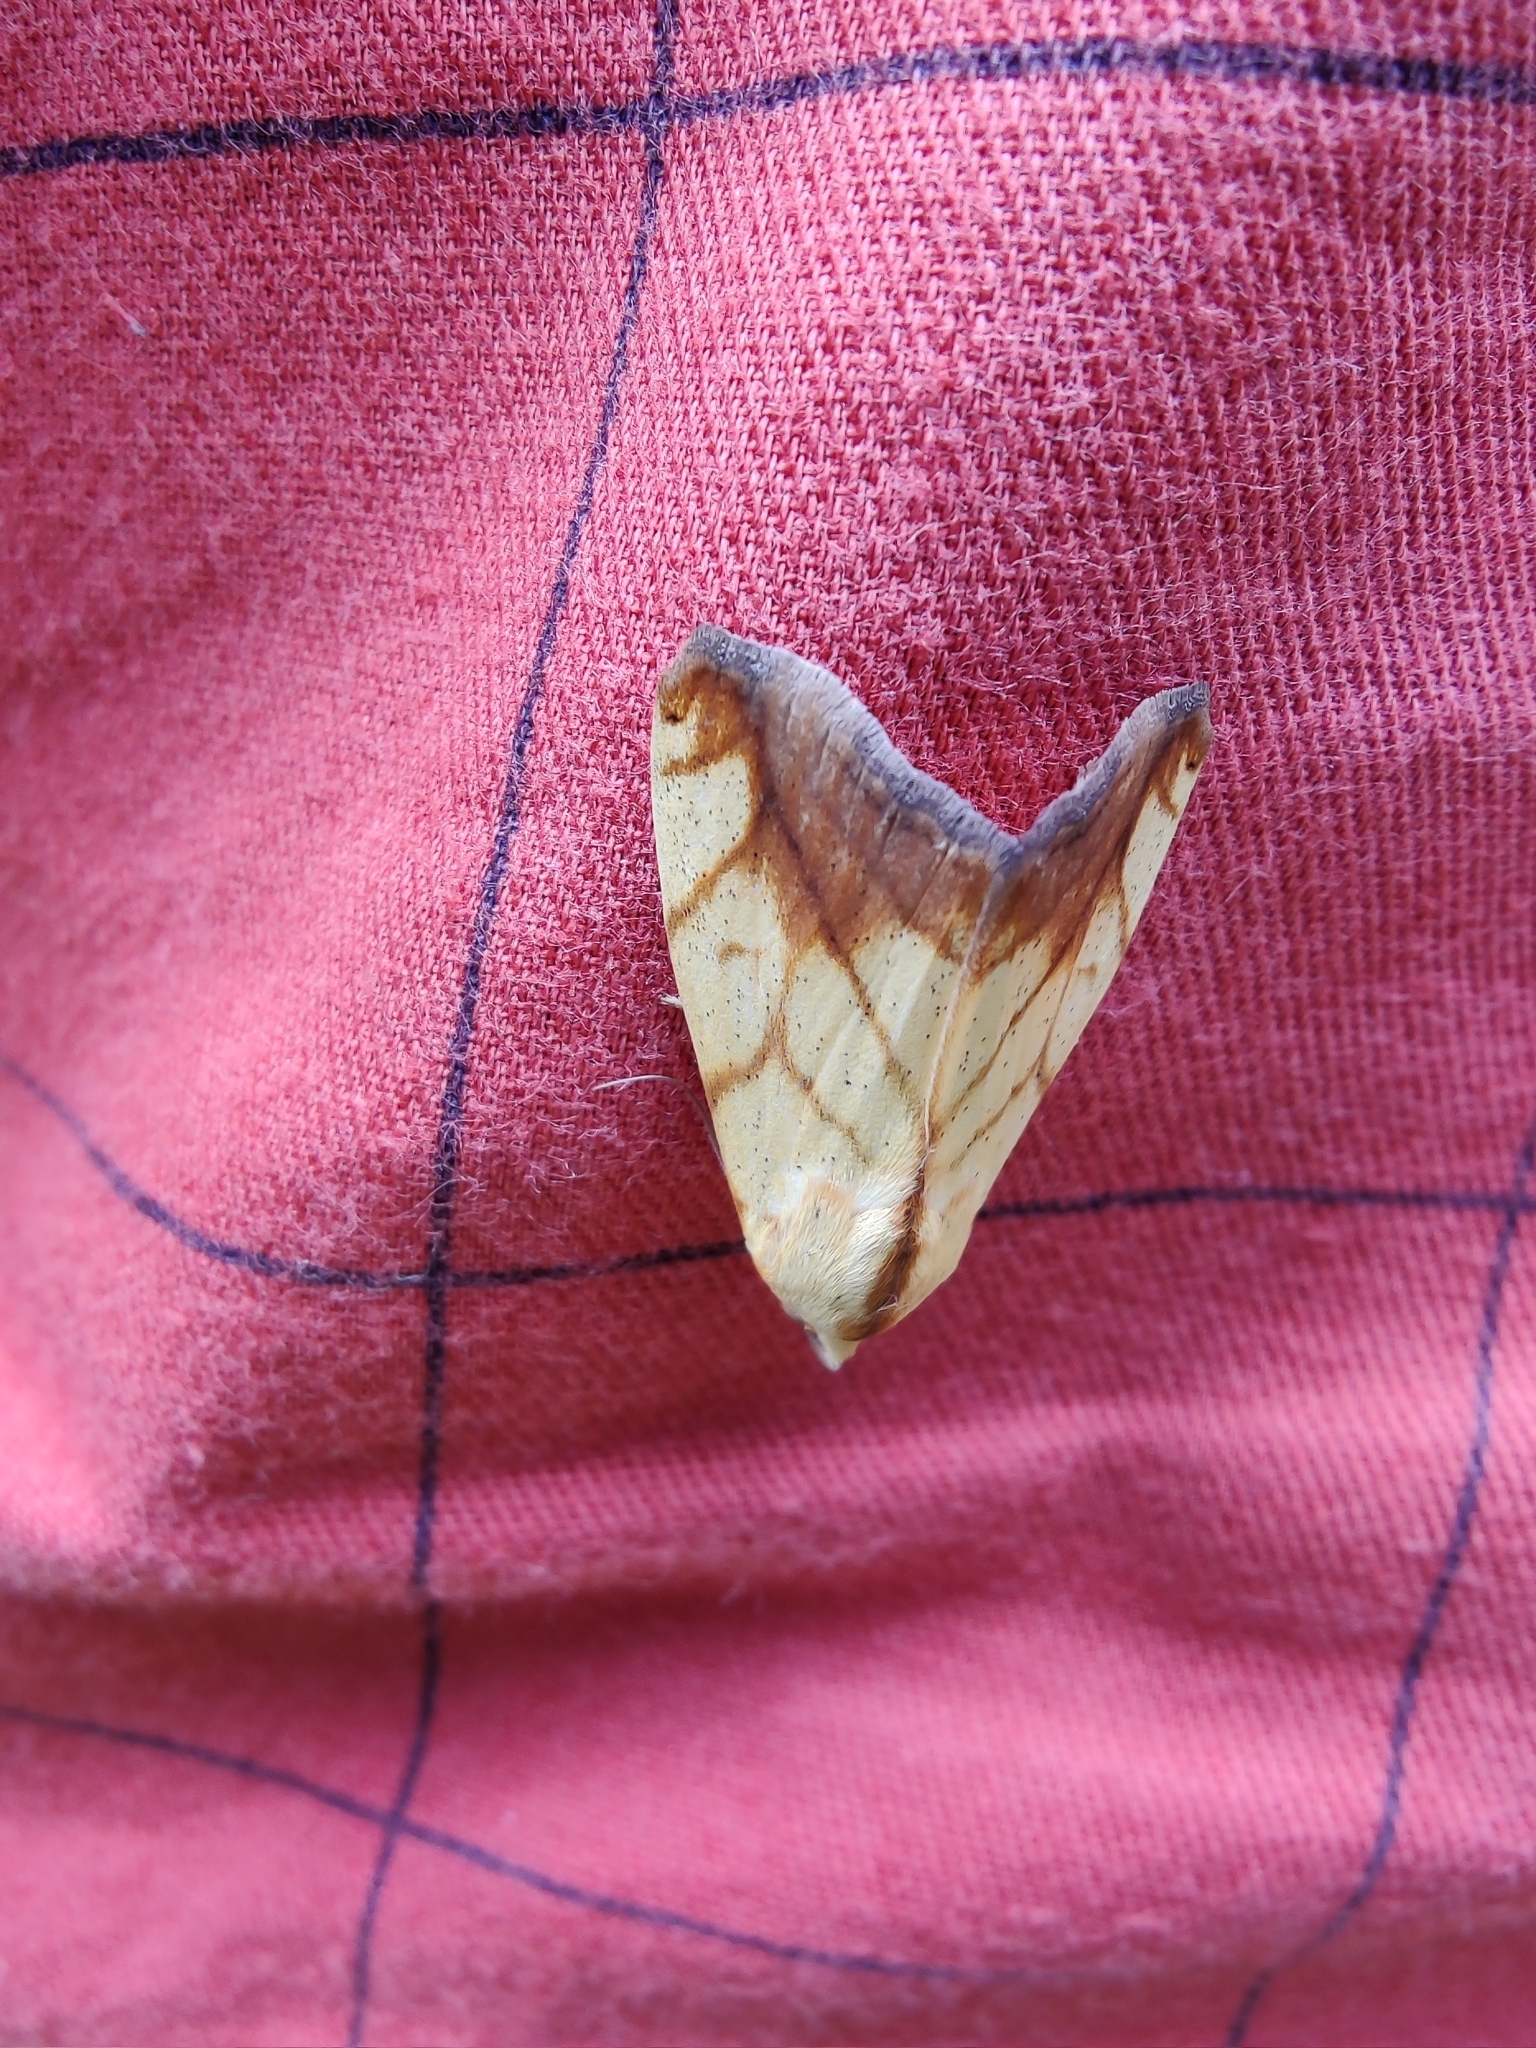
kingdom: Animalia
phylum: Arthropoda
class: Insecta
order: Lepidoptera
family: Nolidae
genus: Xanthodes
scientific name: Xanthodes transversa
